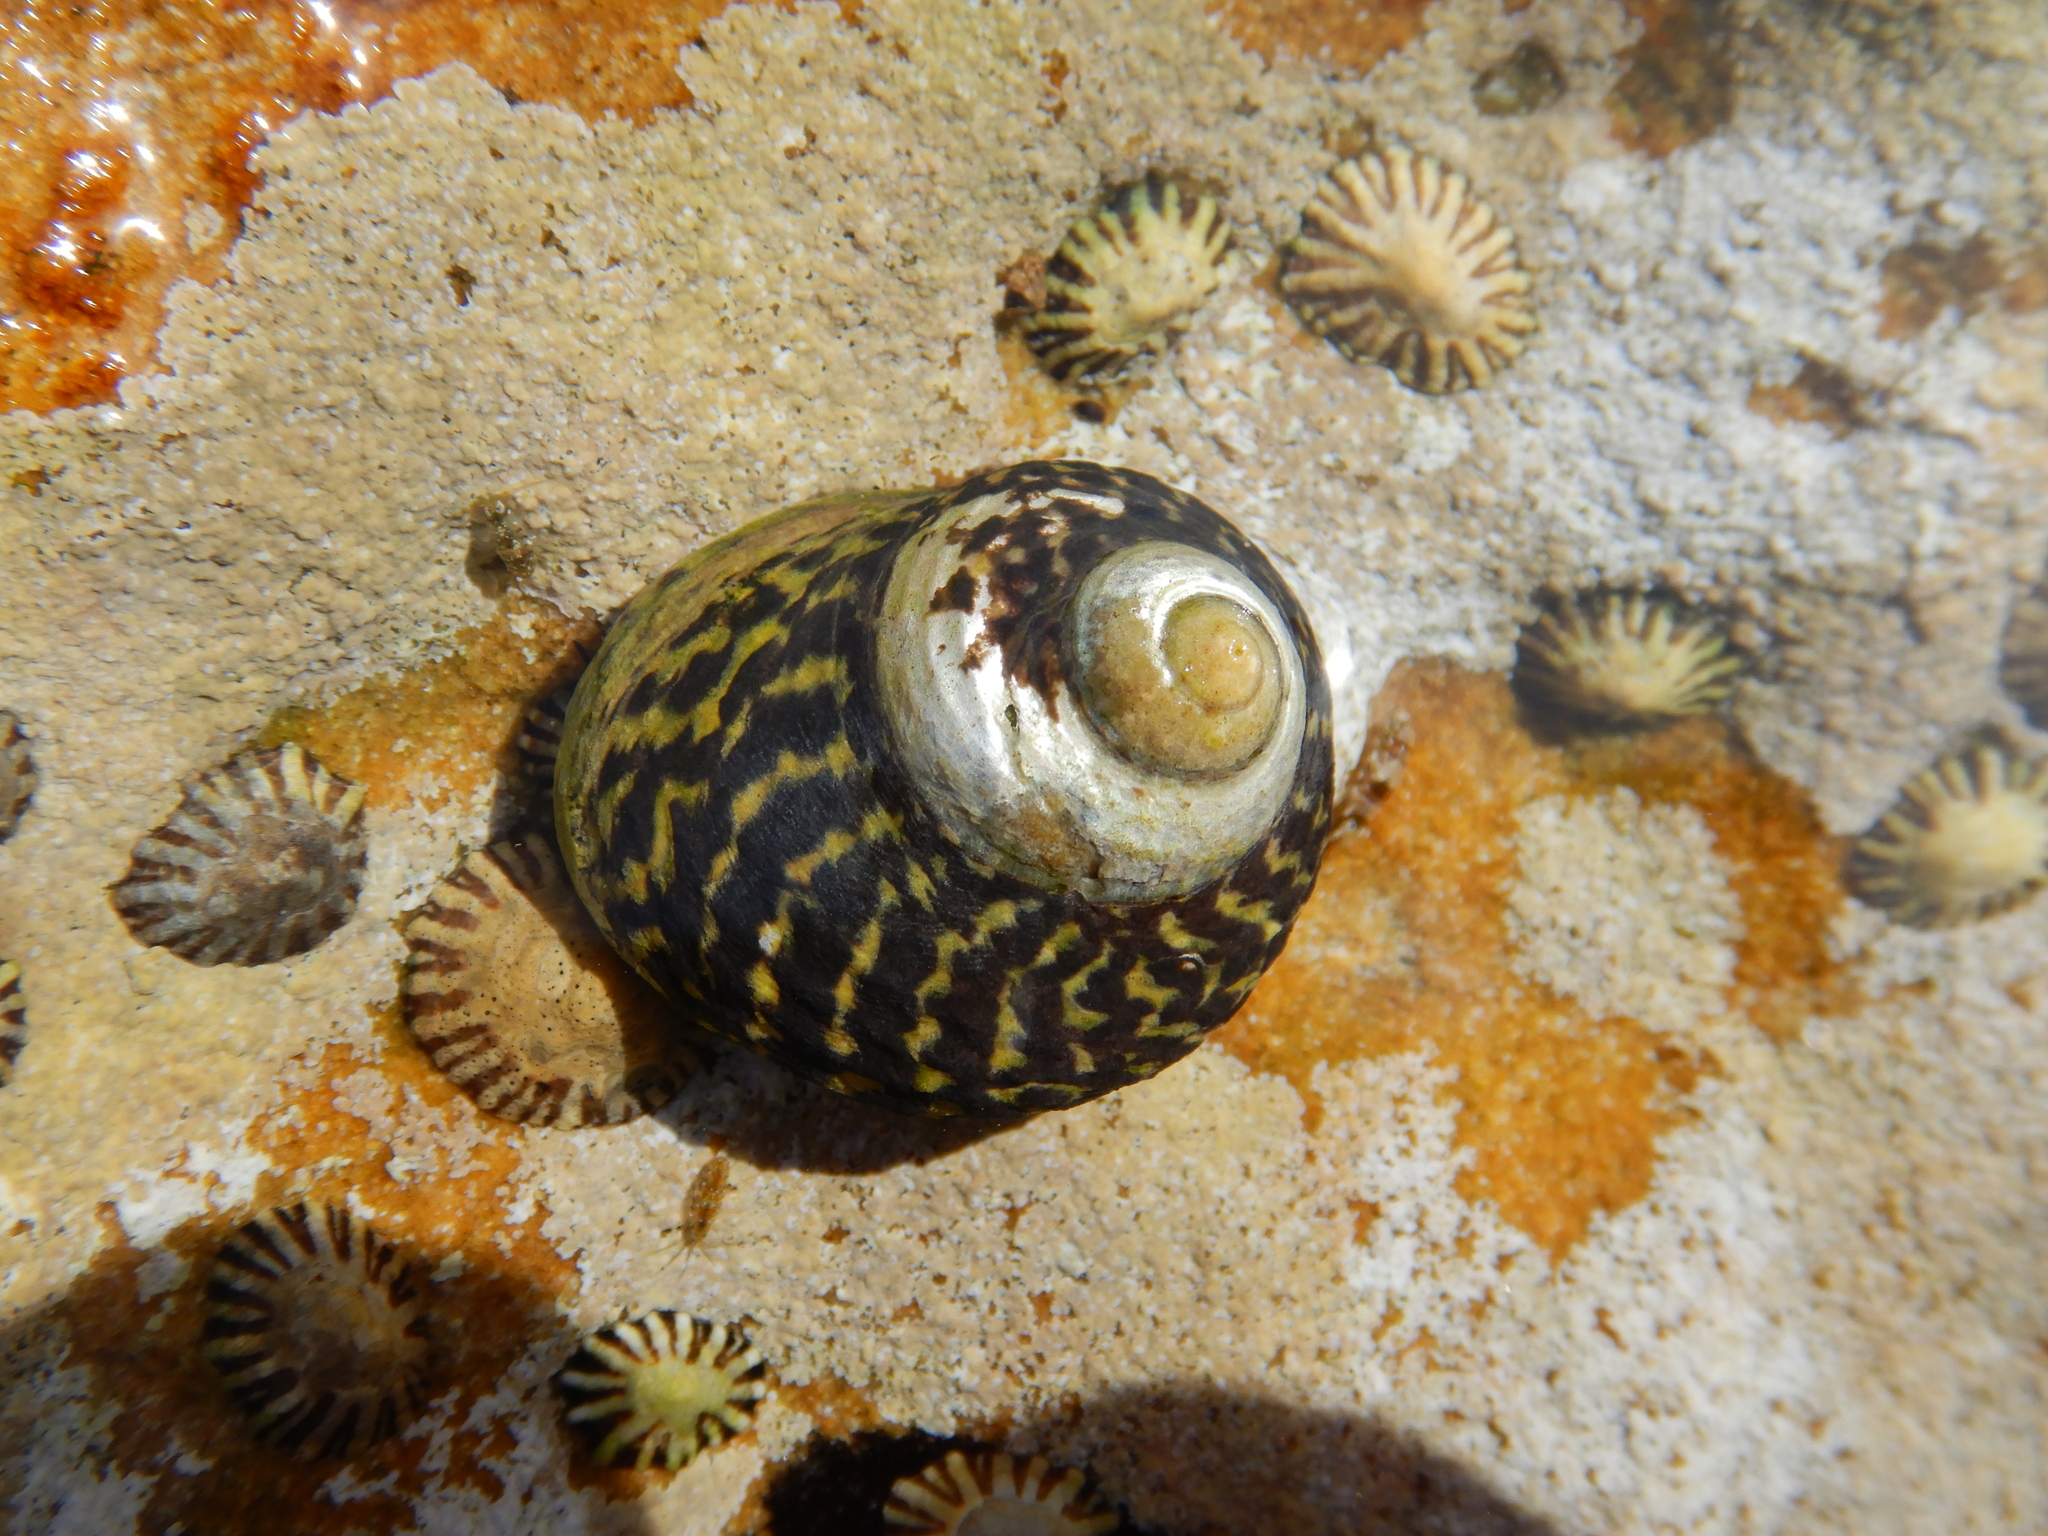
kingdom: Animalia
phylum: Mollusca
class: Gastropoda
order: Trochida
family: Trochidae
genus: Diloma
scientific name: Diloma concameratum
